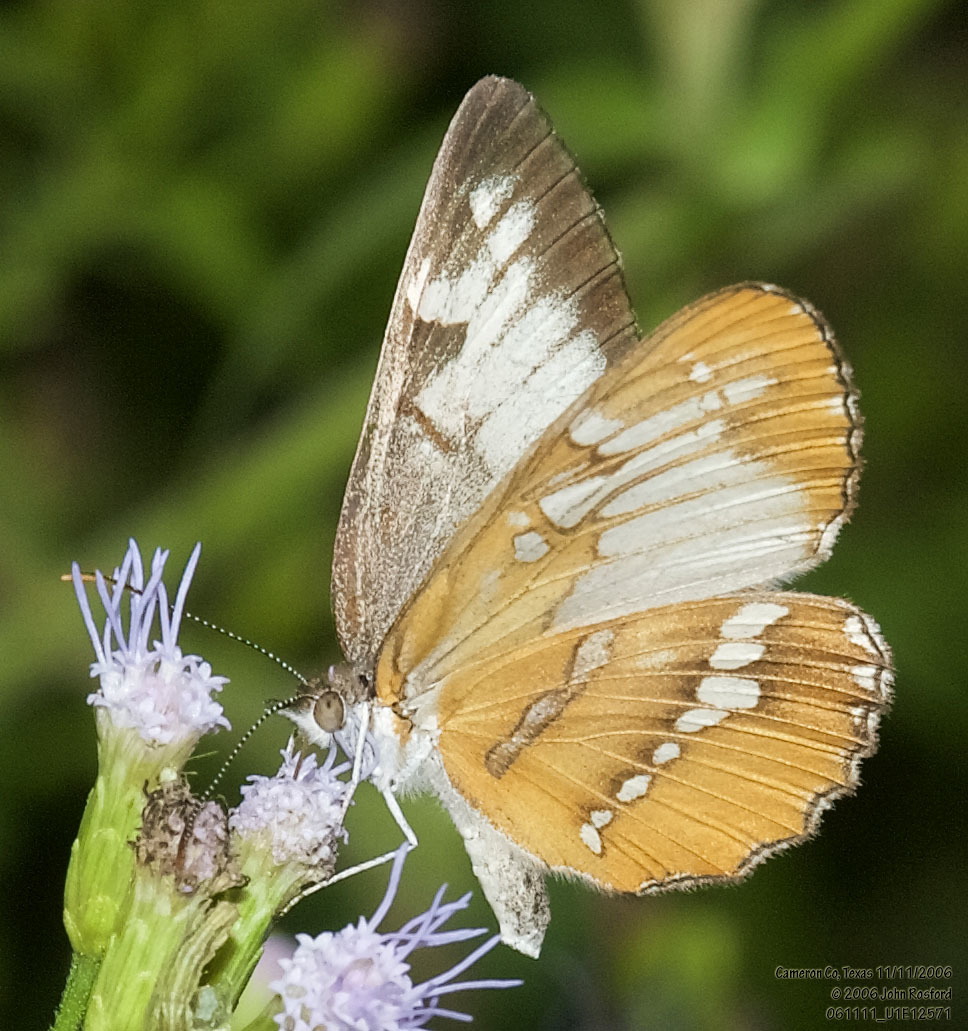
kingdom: Animalia
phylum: Arthropoda
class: Insecta
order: Lepidoptera
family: Nymphalidae
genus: Mestra
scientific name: Mestra amymone
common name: Common mestra
